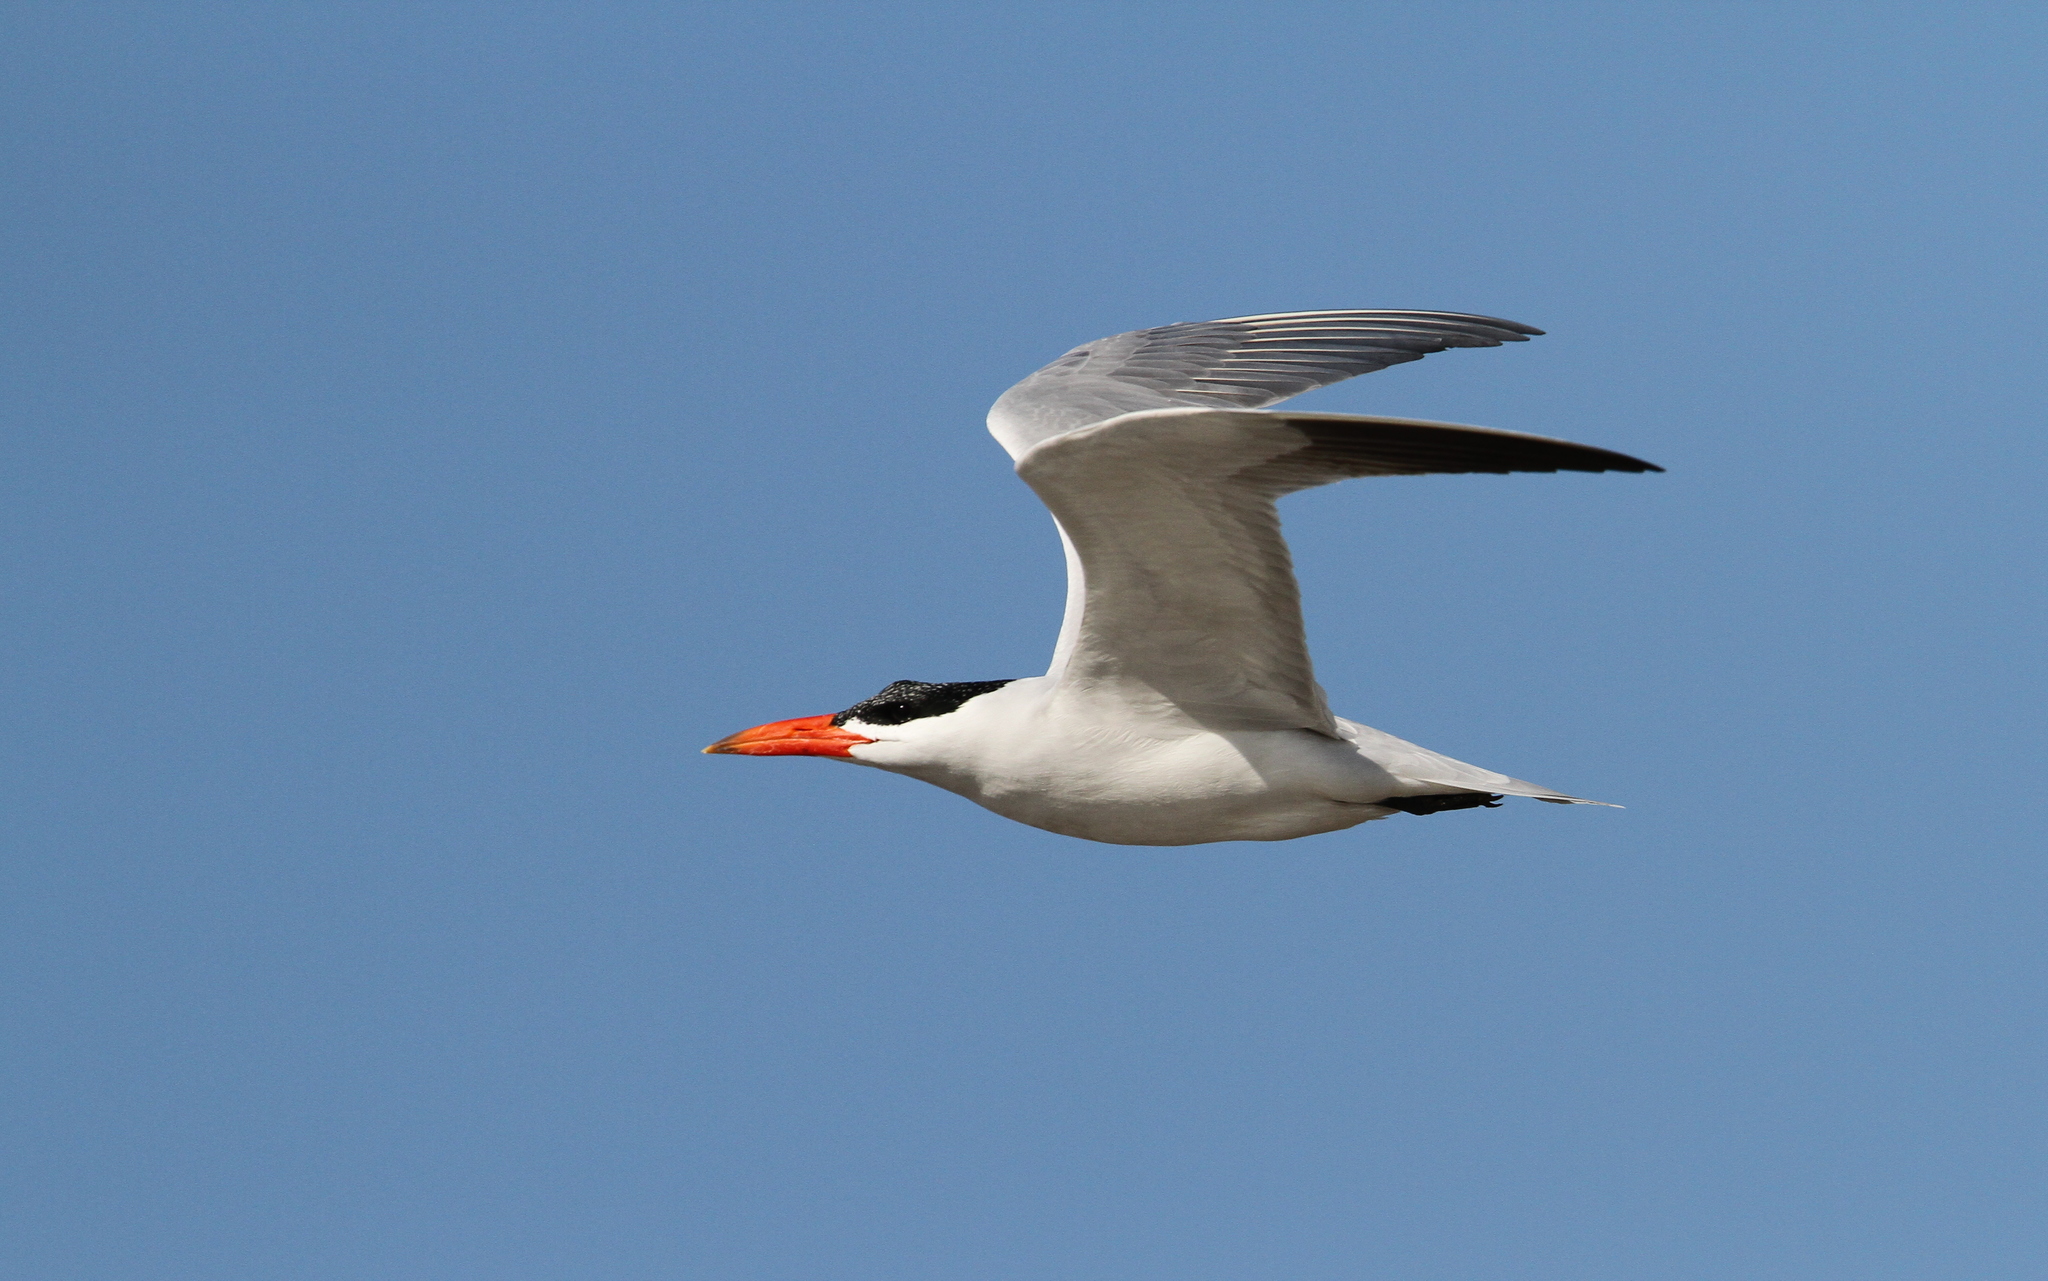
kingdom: Animalia
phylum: Chordata
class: Aves
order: Charadriiformes
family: Laridae
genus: Hydroprogne
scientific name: Hydroprogne caspia
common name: Caspian tern
